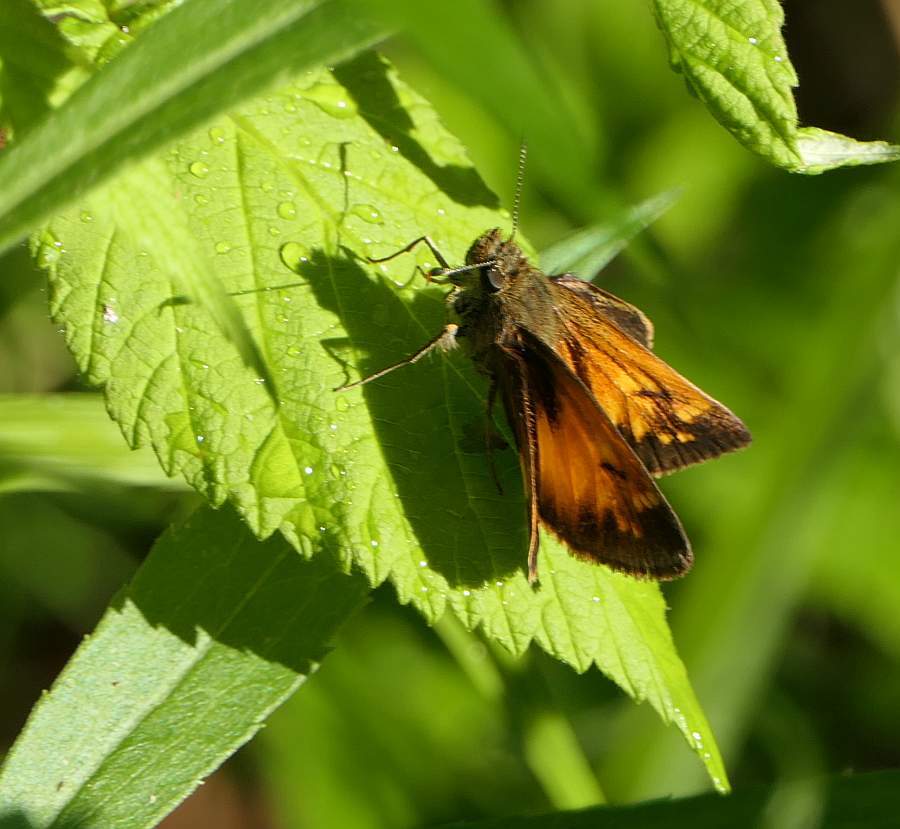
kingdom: Animalia
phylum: Arthropoda
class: Insecta
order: Lepidoptera
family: Hesperiidae
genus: Lon
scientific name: Lon hobomok
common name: Hobomok skipper
